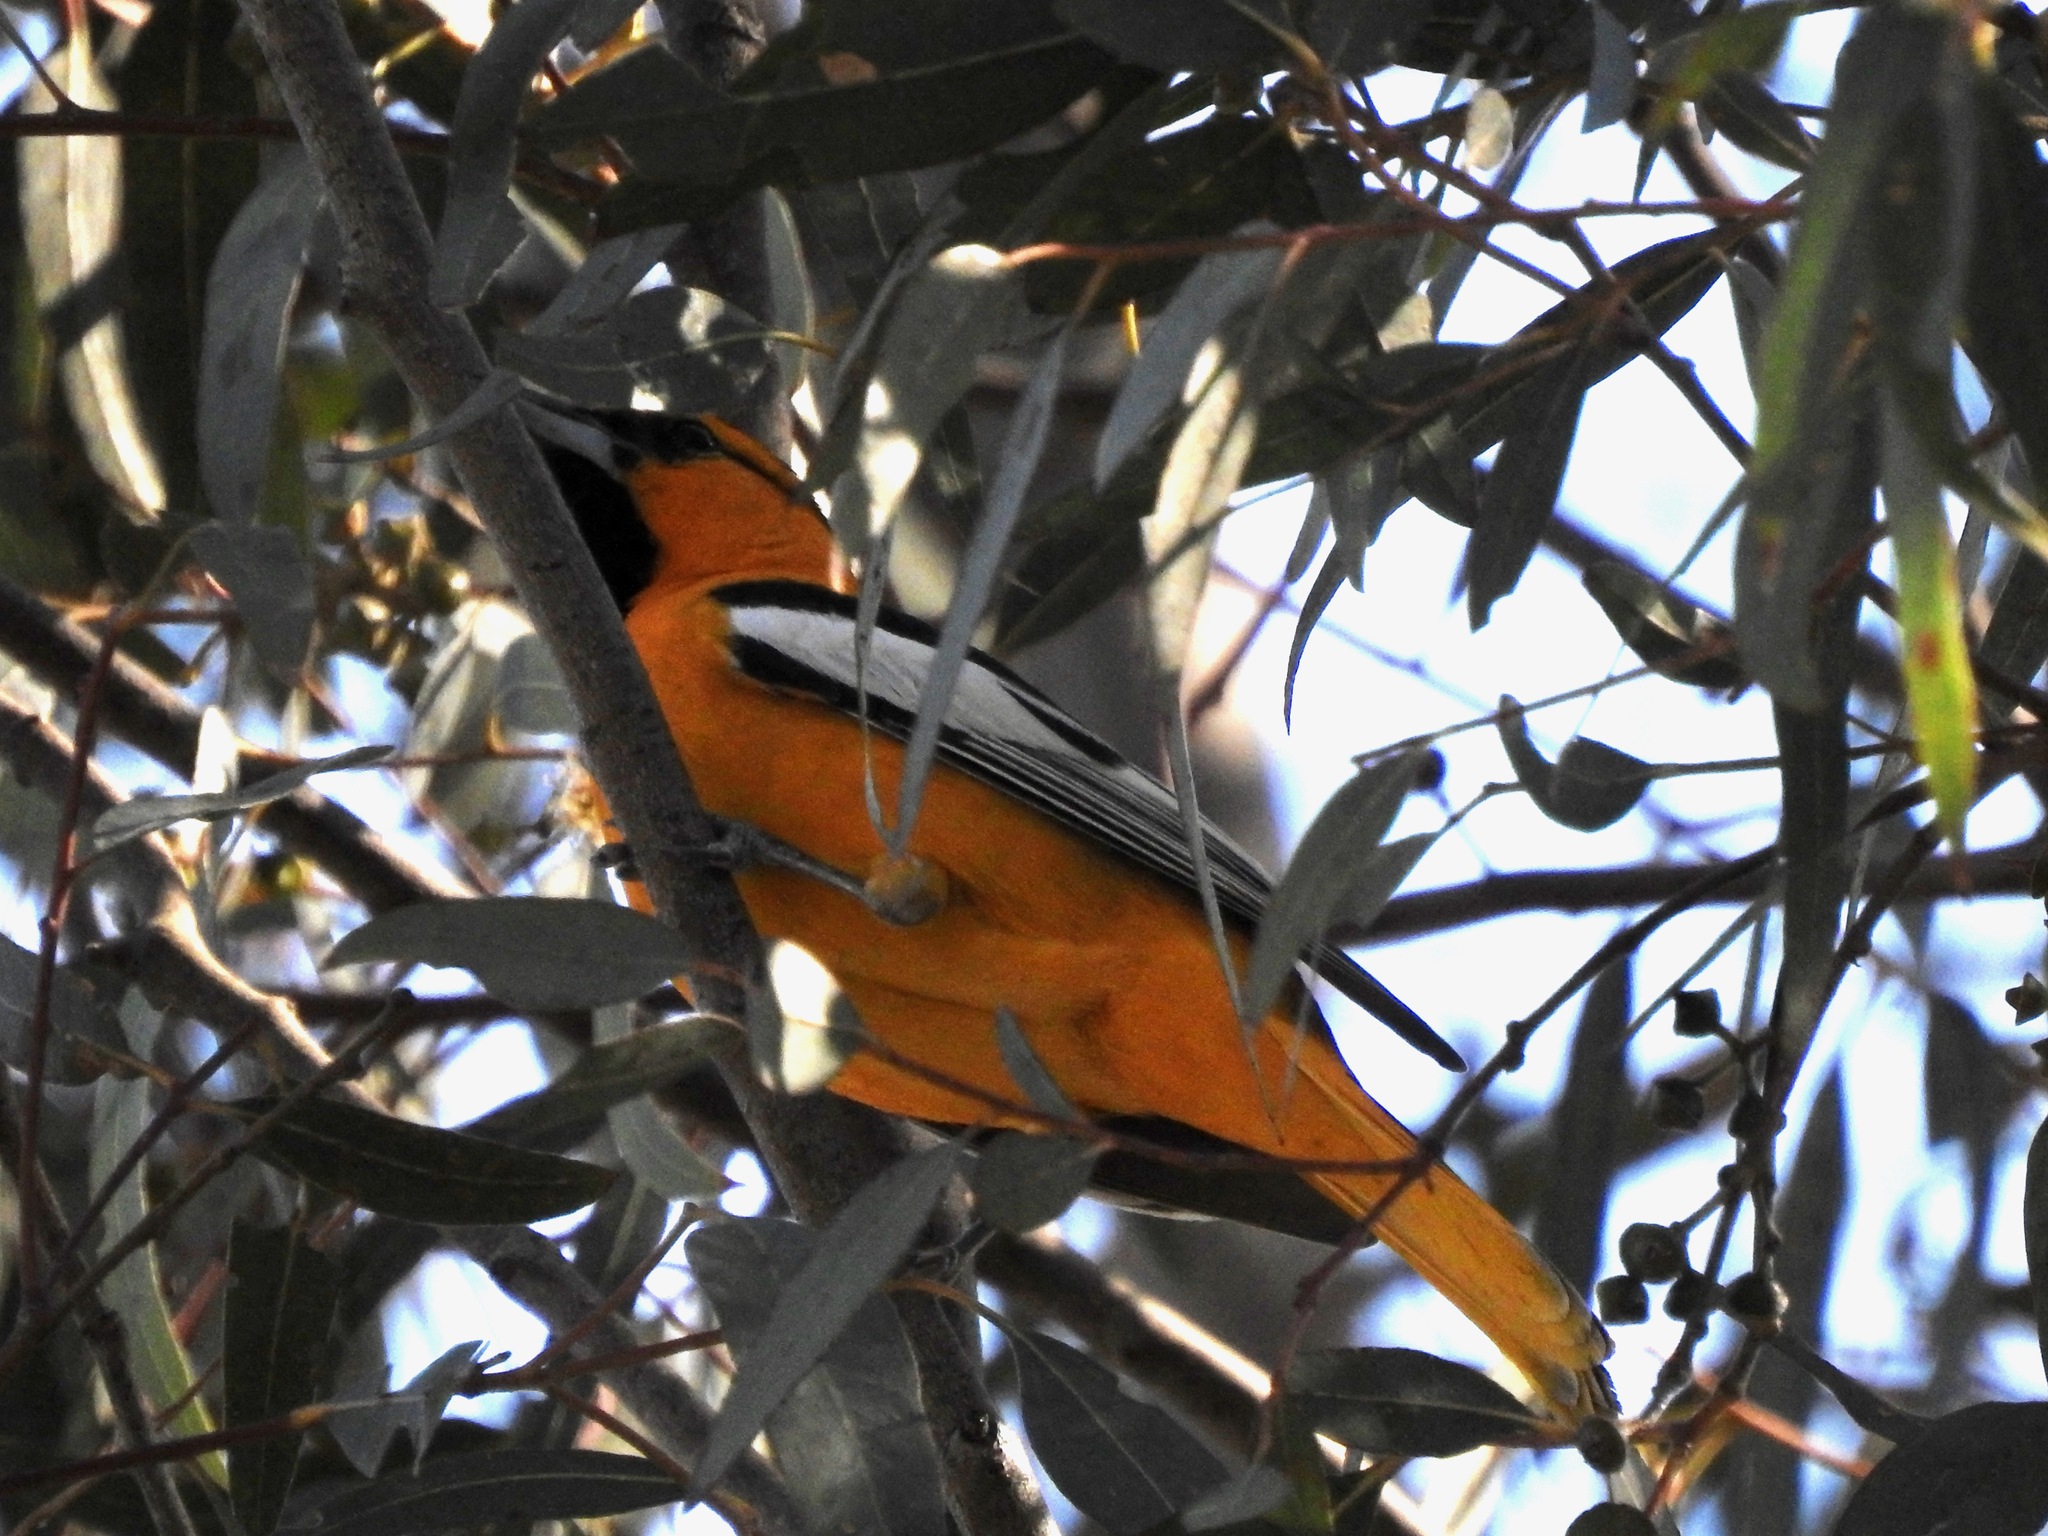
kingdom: Animalia
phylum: Chordata
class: Aves
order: Passeriformes
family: Icteridae
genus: Icterus
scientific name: Icterus bullockii
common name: Bullock's oriole
